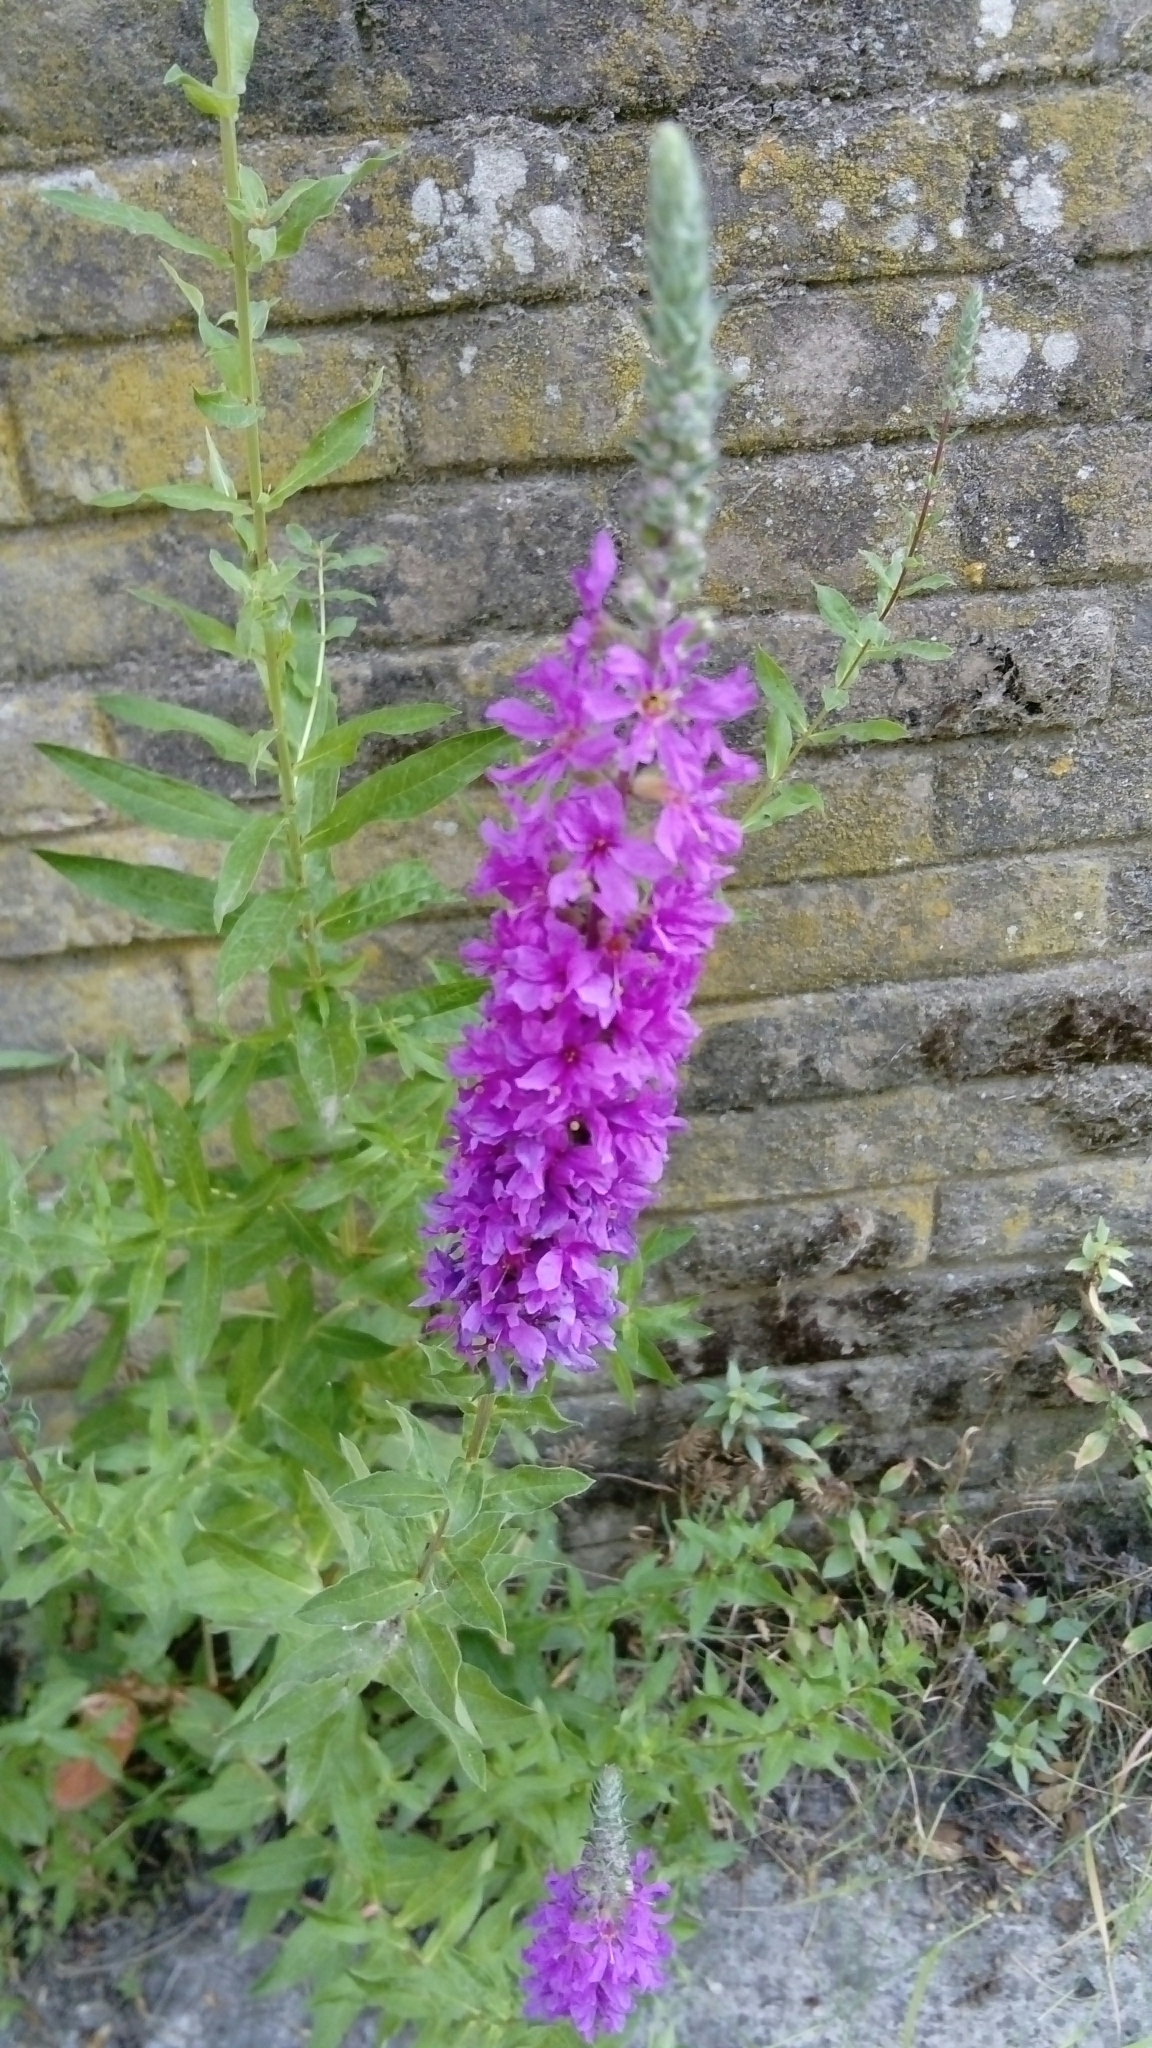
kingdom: Plantae
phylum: Tracheophyta
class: Magnoliopsida
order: Myrtales
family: Lythraceae
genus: Lythrum
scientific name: Lythrum salicaria
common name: Purple loosestrife
